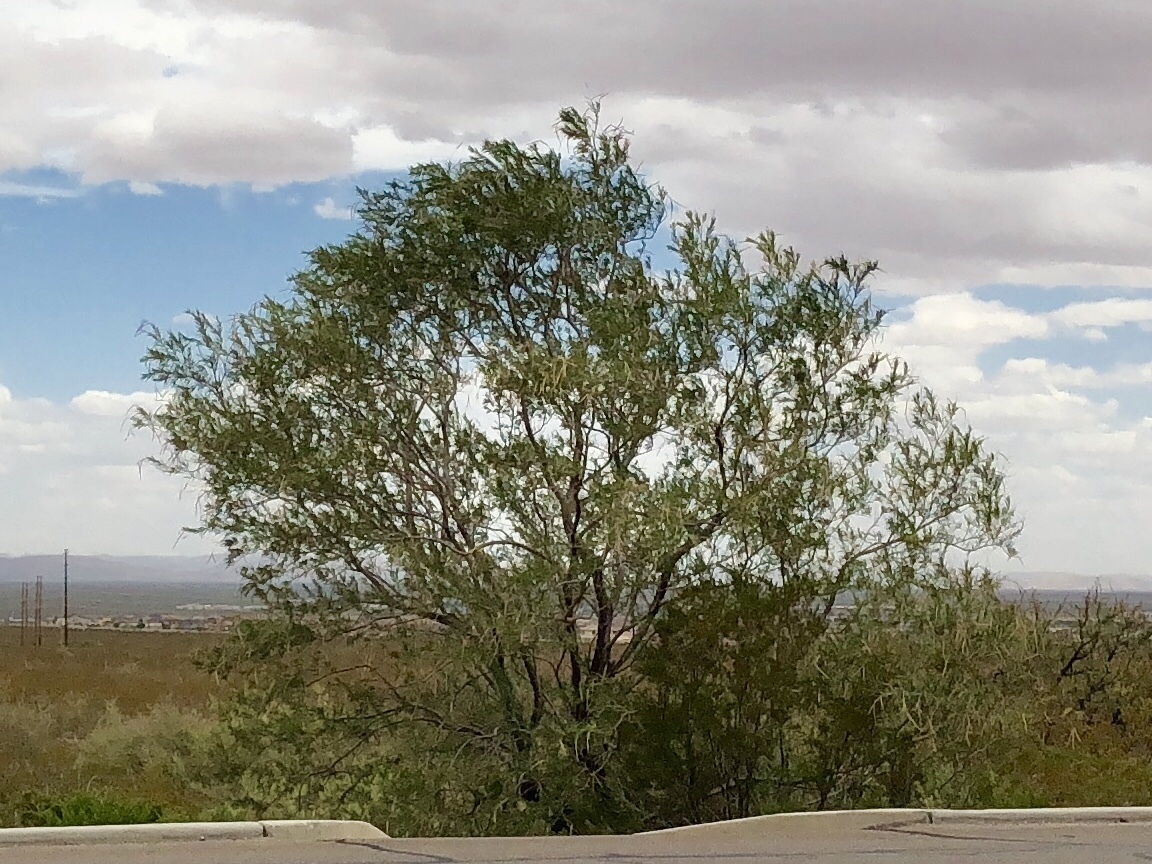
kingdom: Plantae
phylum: Tracheophyta
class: Magnoliopsida
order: Lamiales
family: Bignoniaceae
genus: Chilopsis
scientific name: Chilopsis linearis
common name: Desert-willow
